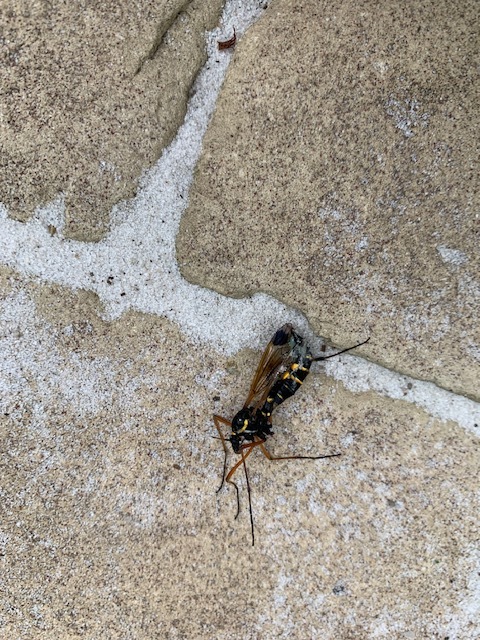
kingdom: Animalia
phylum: Arthropoda
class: Insecta
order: Diptera
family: Tipulidae
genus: Ctenophora
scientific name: Ctenophora festiva
